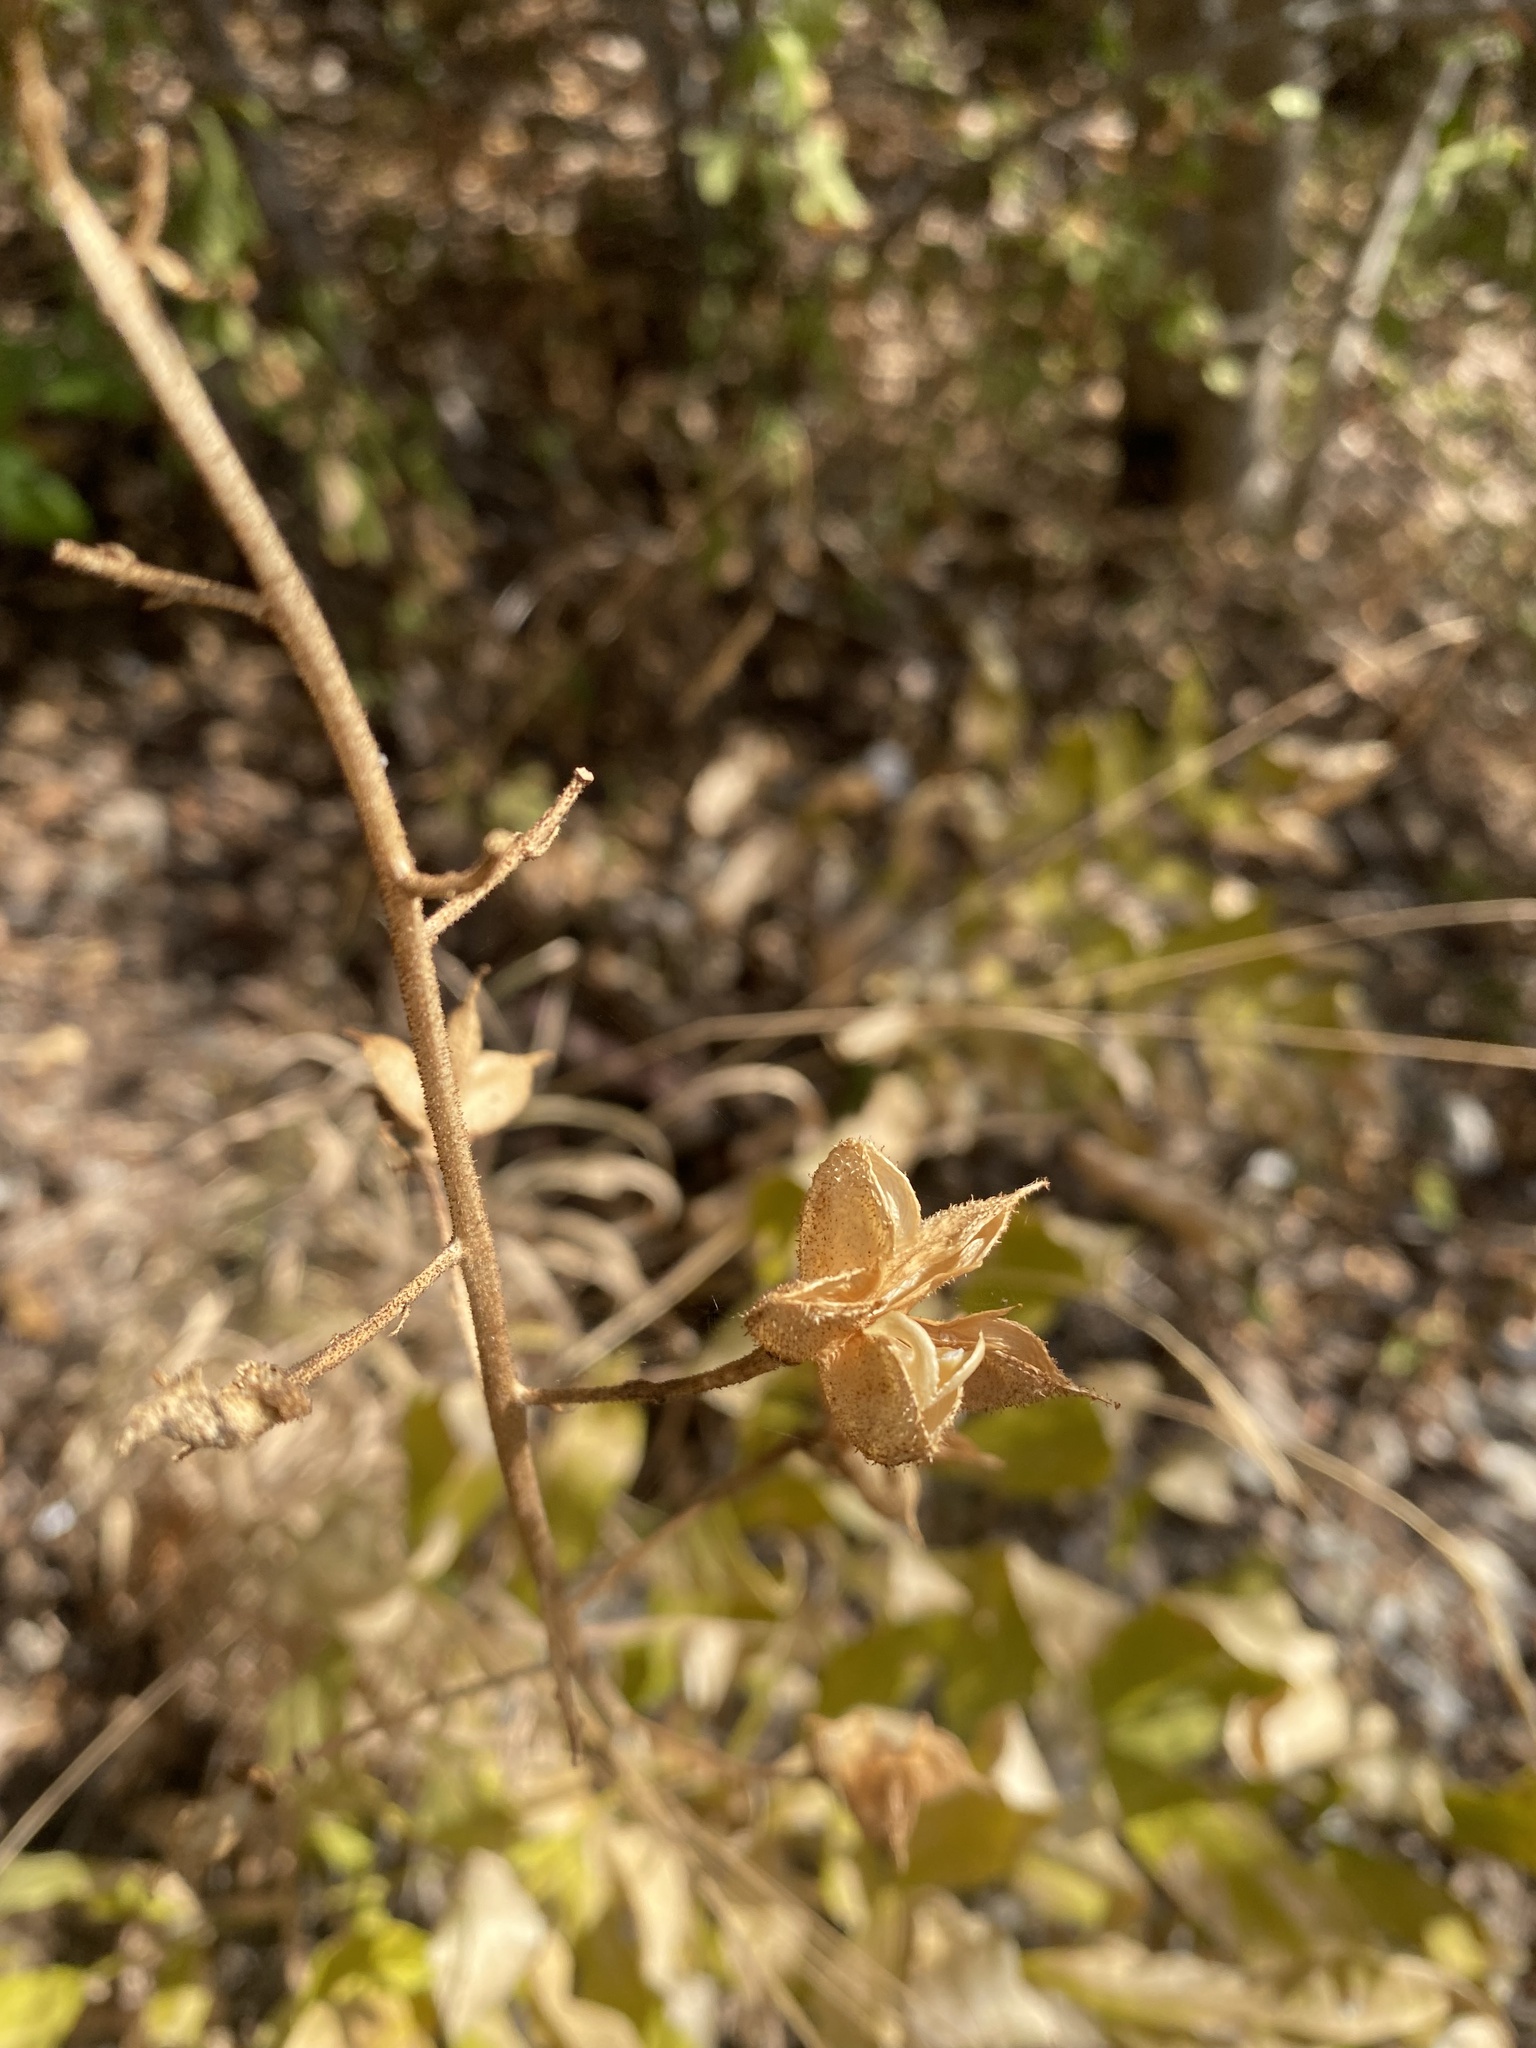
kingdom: Plantae
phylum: Tracheophyta
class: Magnoliopsida
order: Sapindales
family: Rutaceae
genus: Dictamnus
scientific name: Dictamnus albus
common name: Gasplant
